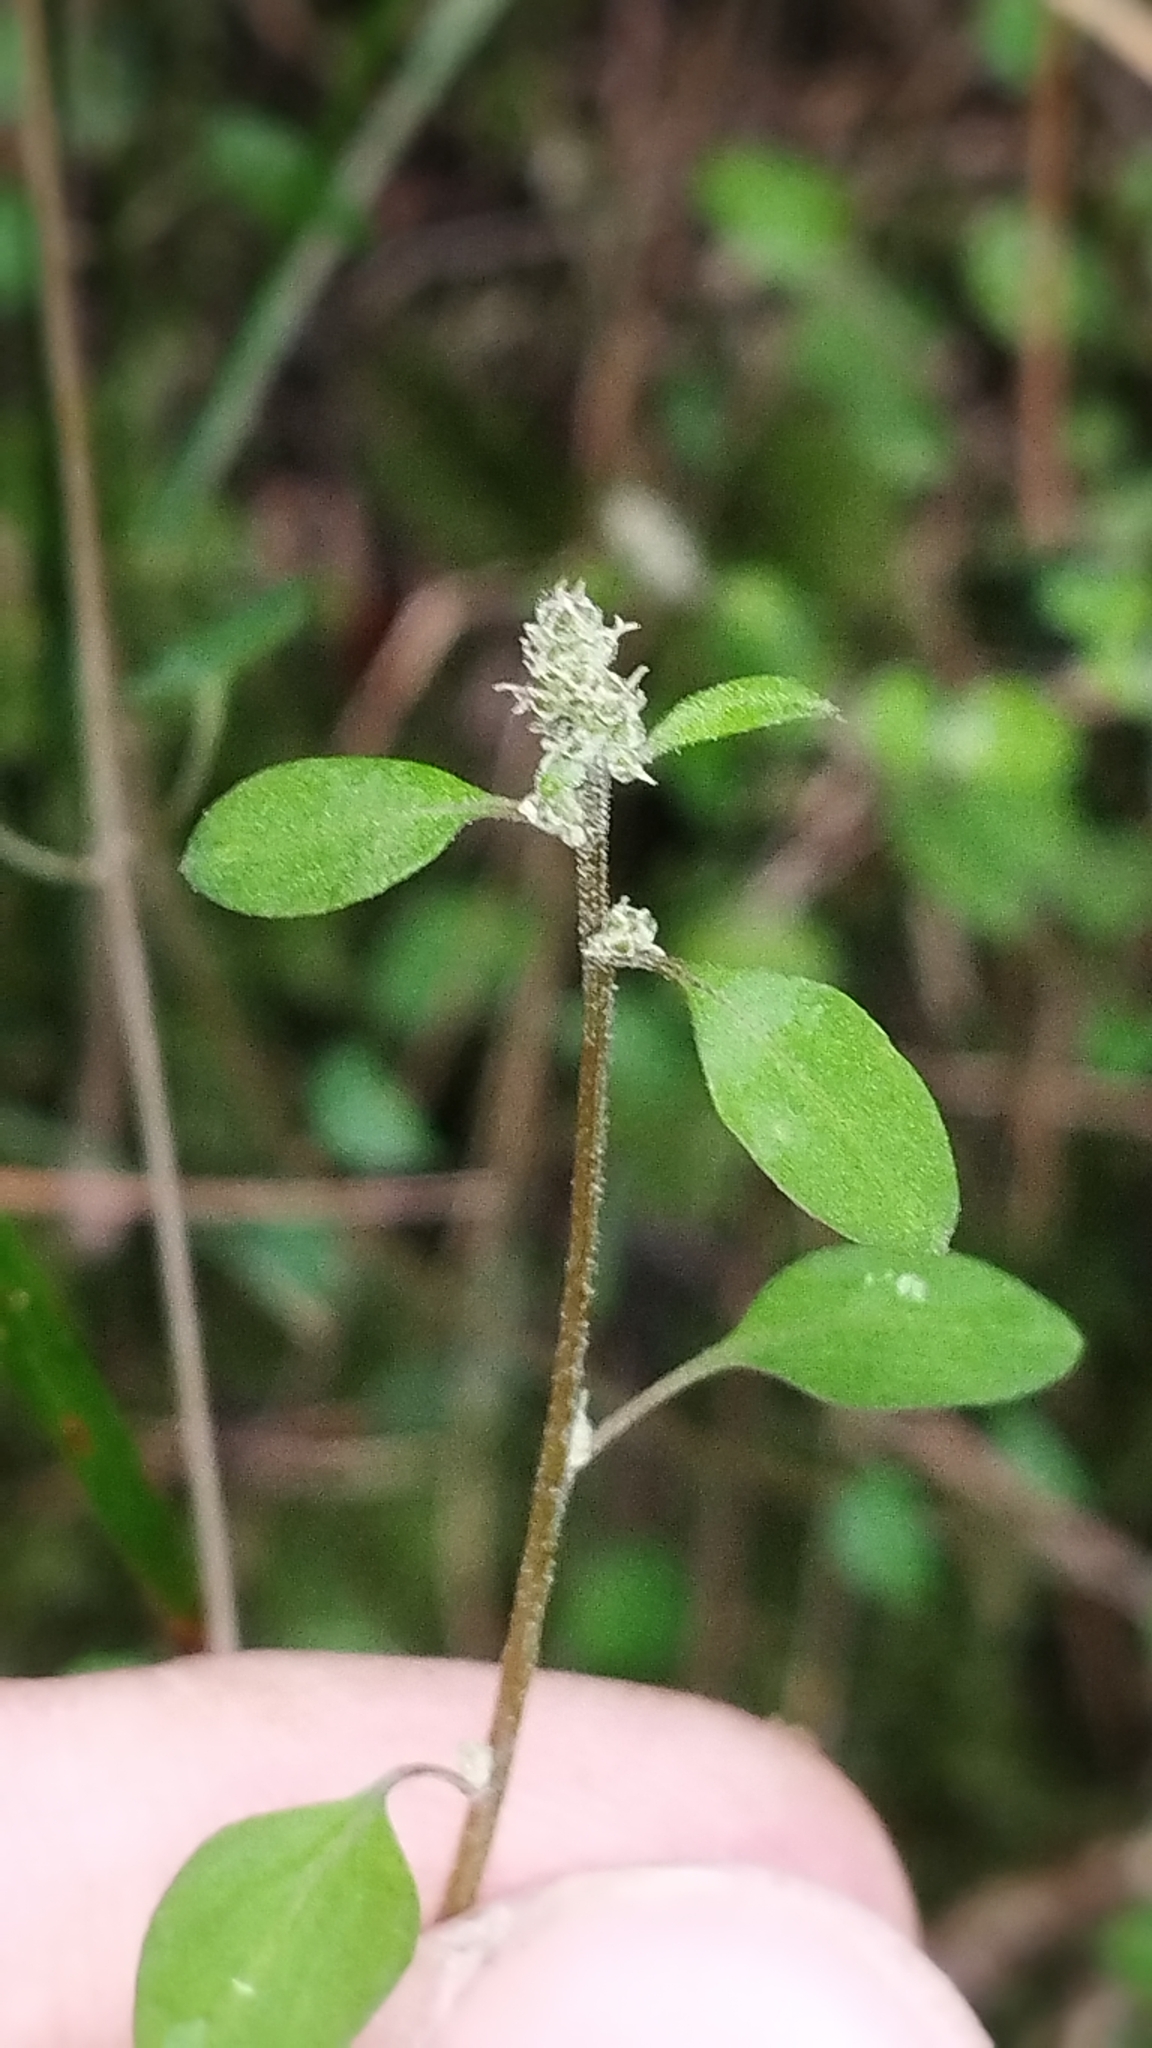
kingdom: Plantae
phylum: Tracheophyta
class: Magnoliopsida
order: Caryophyllales
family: Amaranthaceae
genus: Chenopodium
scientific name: Chenopodium allanii
